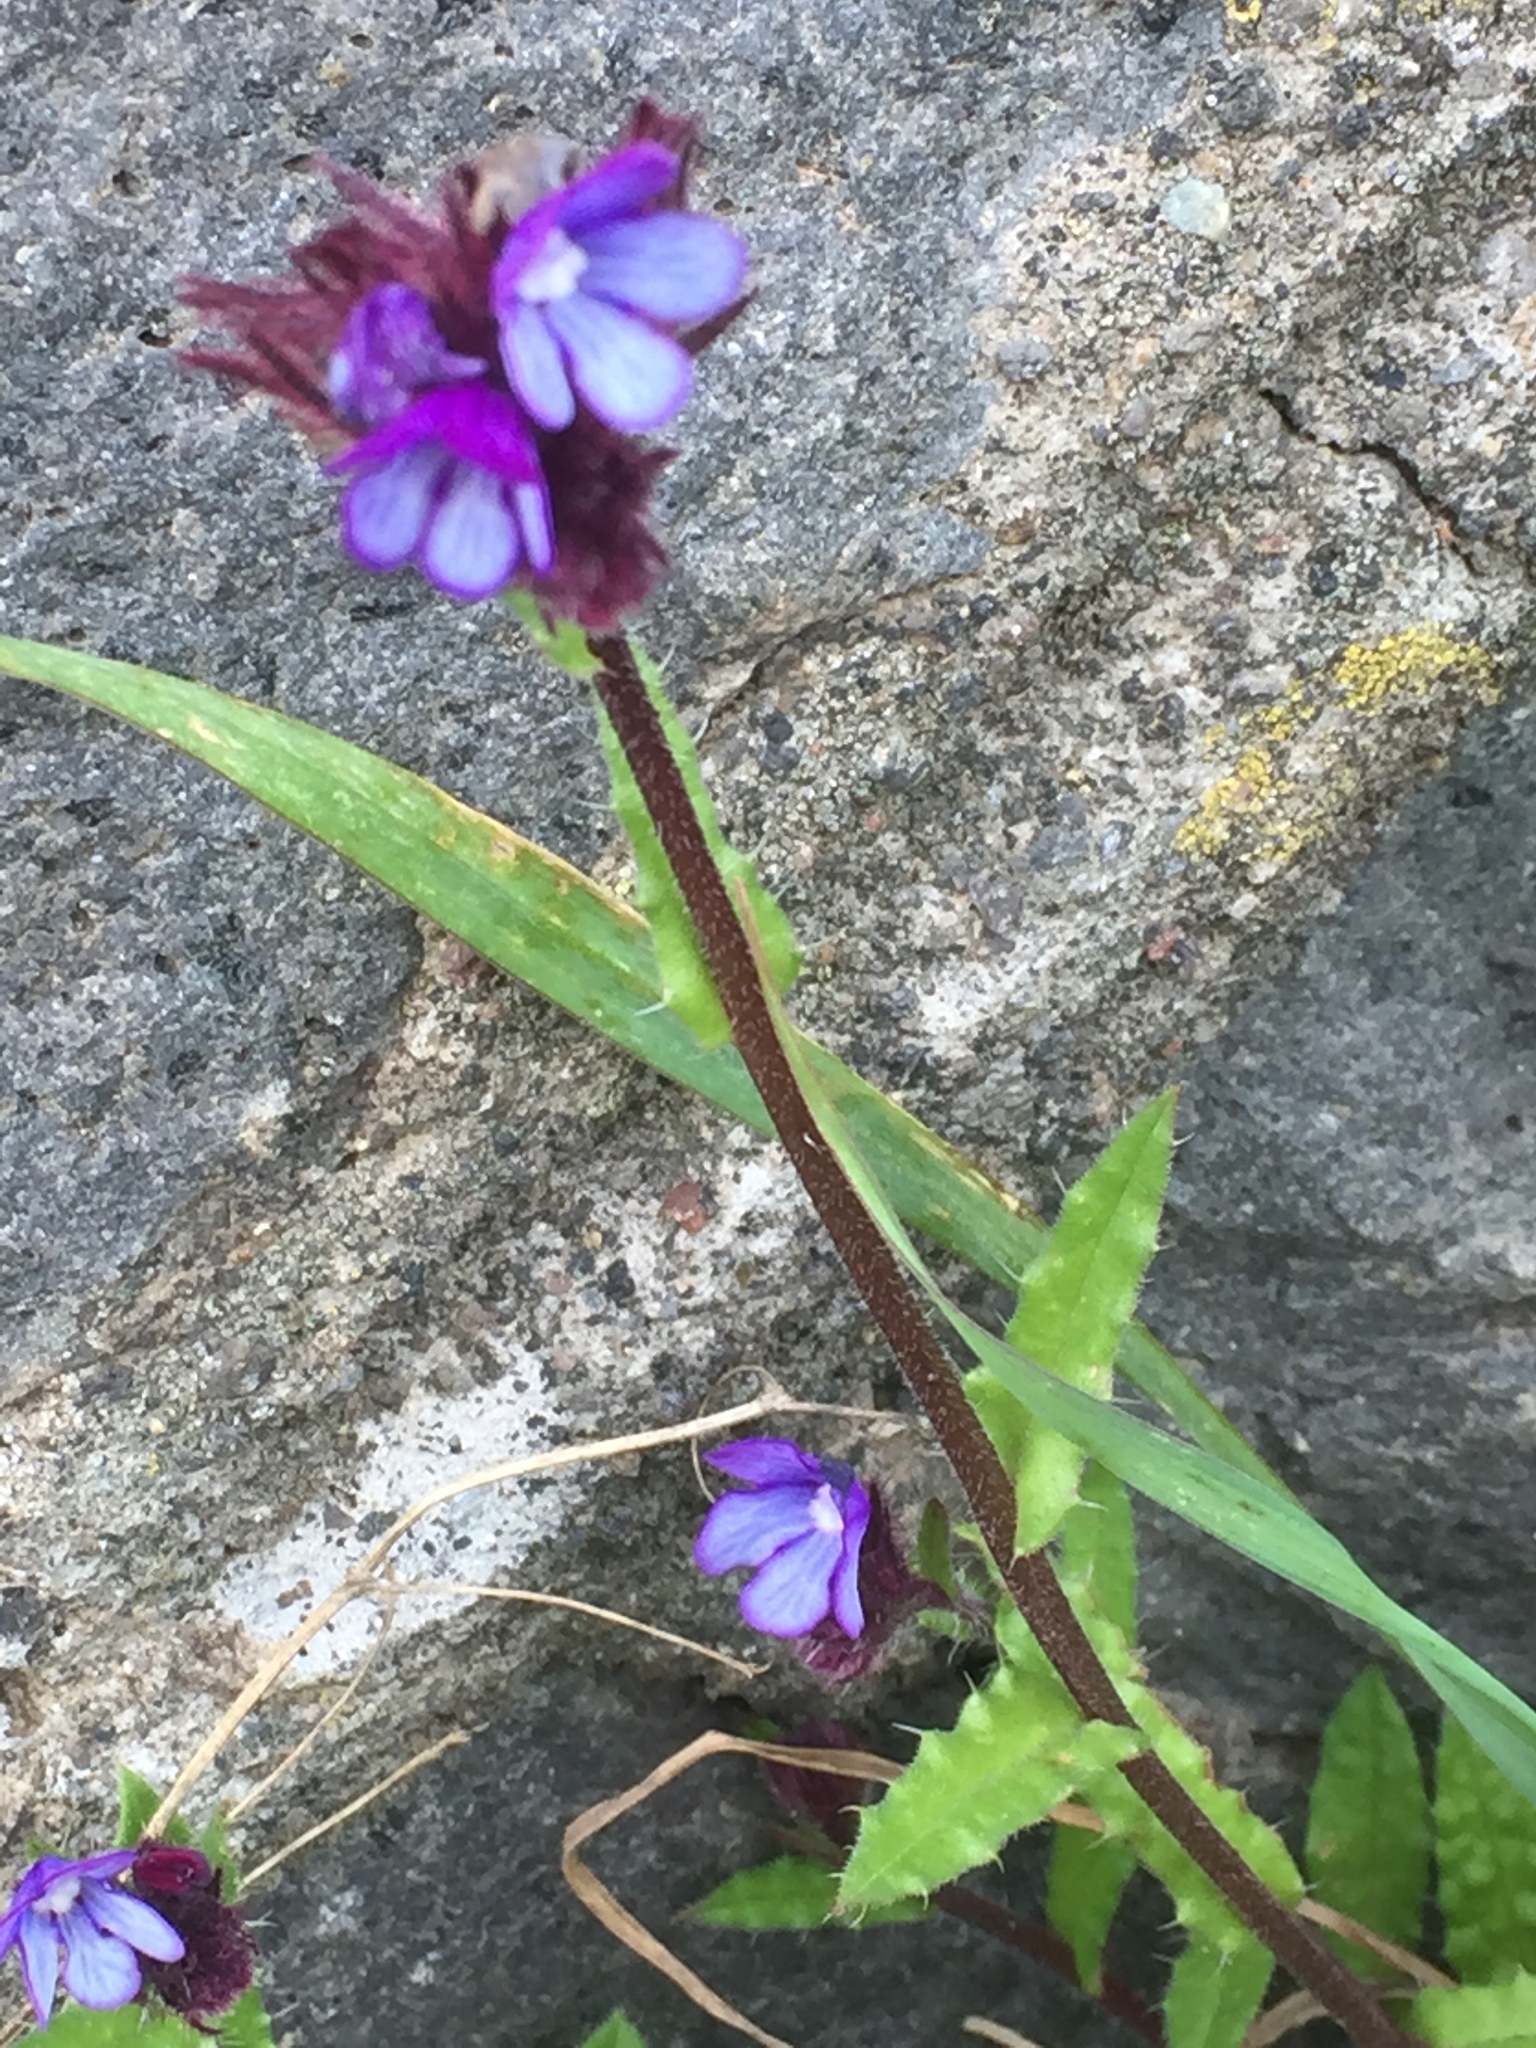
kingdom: Plantae
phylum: Tracheophyta
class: Magnoliopsida
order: Boraginales
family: Boraginaceae
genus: Anchusella
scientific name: Anchusella cretica
